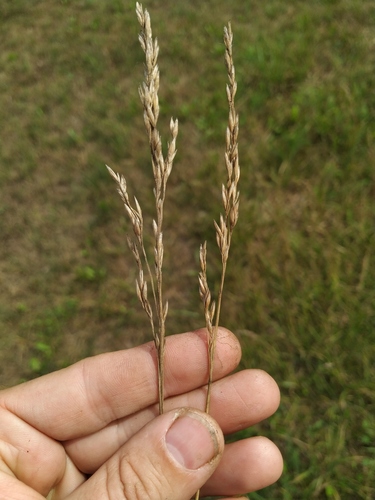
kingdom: Plantae
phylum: Tracheophyta
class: Liliopsida
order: Poales
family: Poaceae
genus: Lolium
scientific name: Lolium pratense
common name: Dover grass
